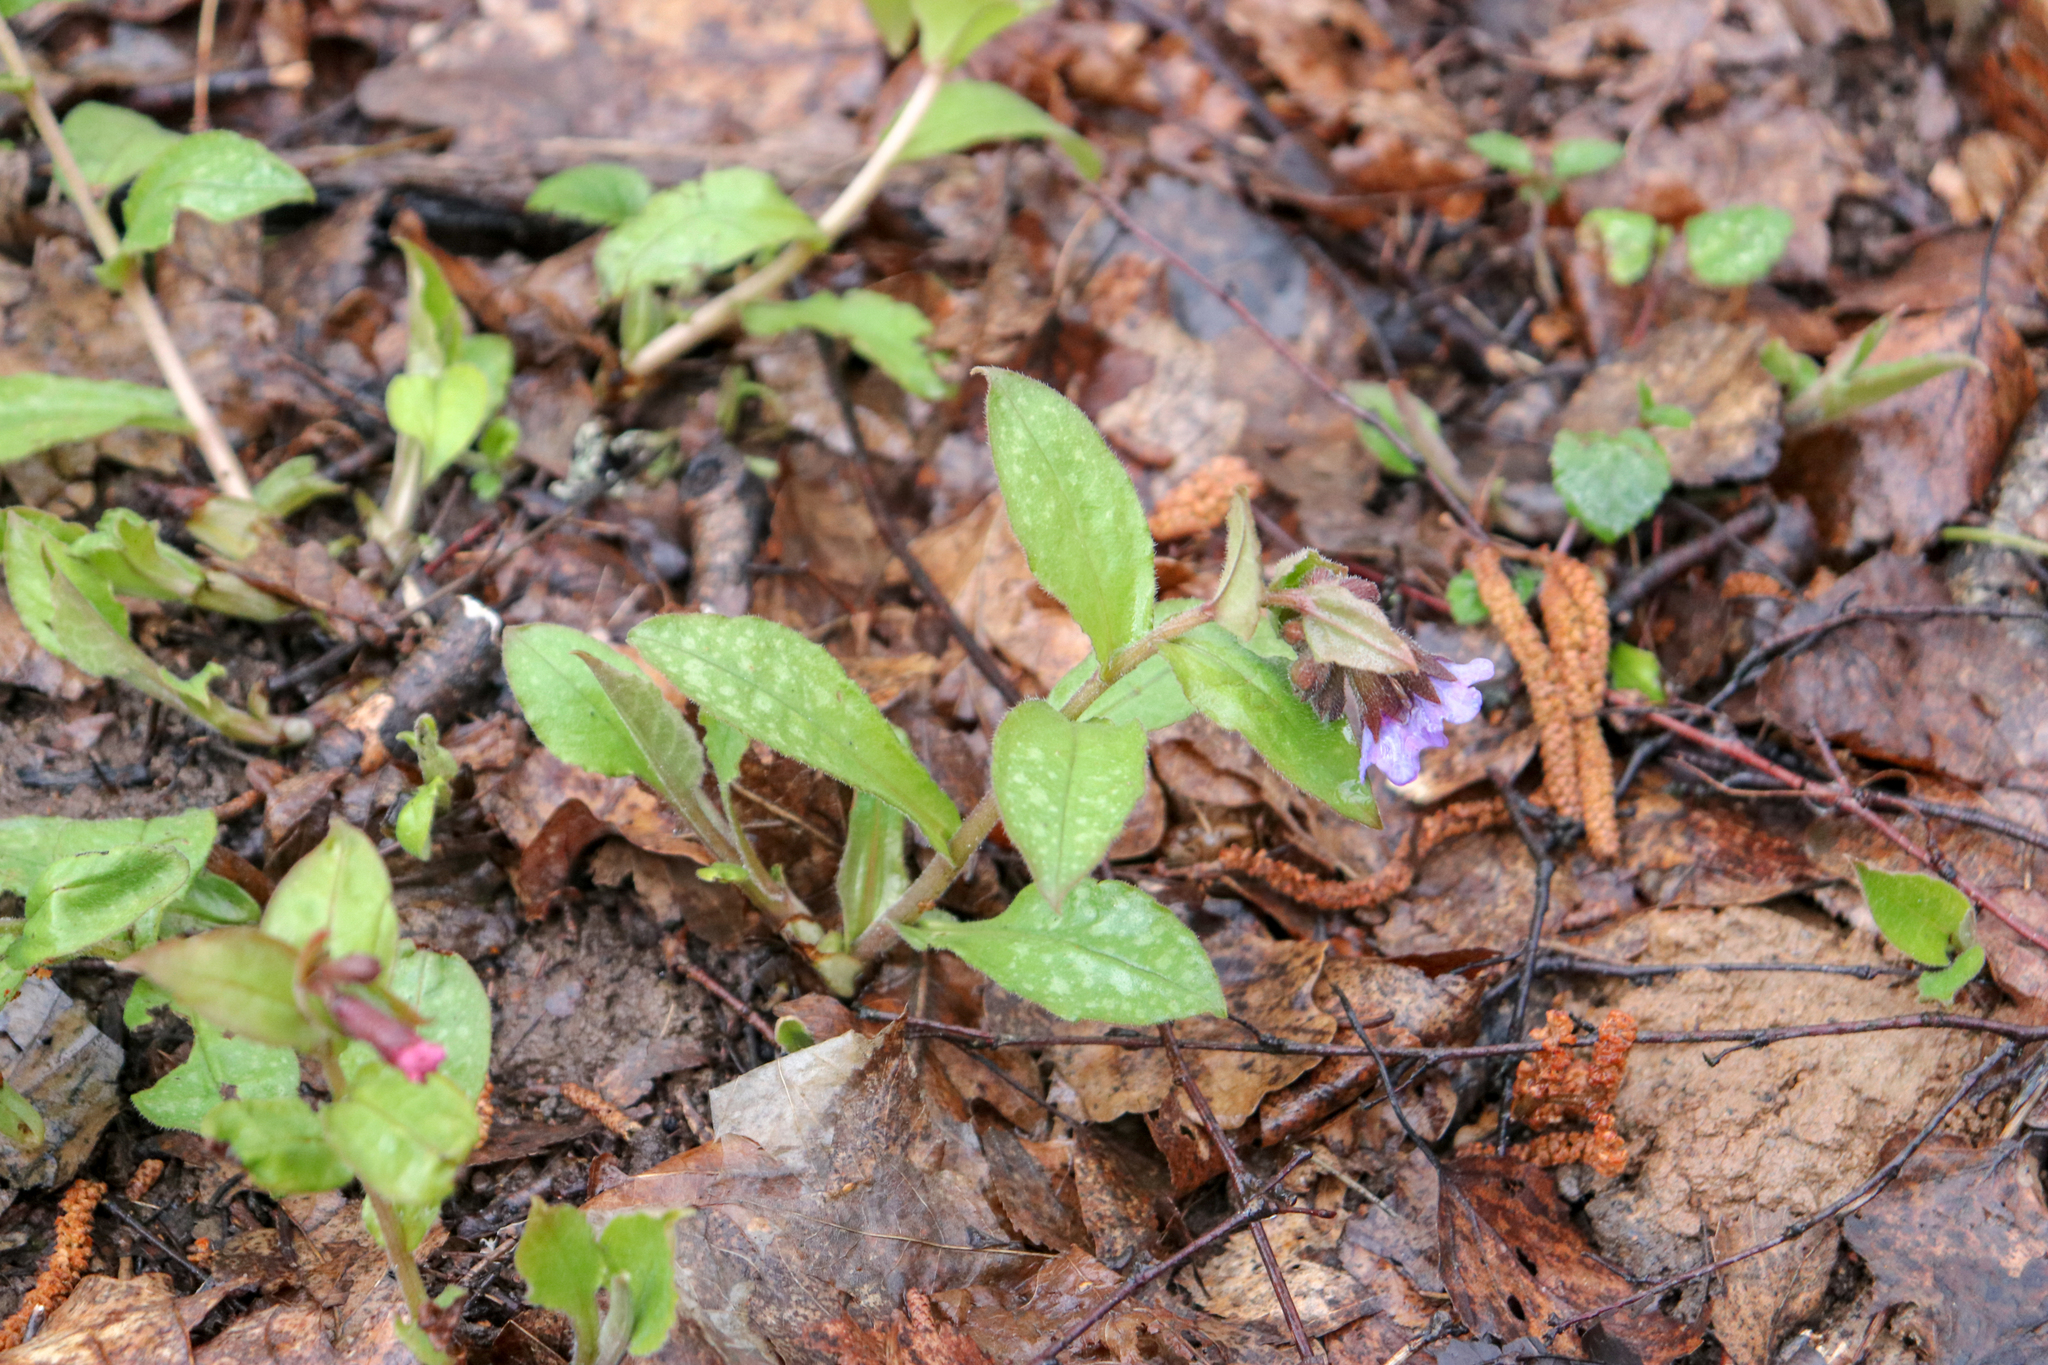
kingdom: Plantae
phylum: Tracheophyta
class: Magnoliopsida
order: Boraginales
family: Boraginaceae
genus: Pulmonaria
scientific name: Pulmonaria obscura
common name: Suffolk lungwort
